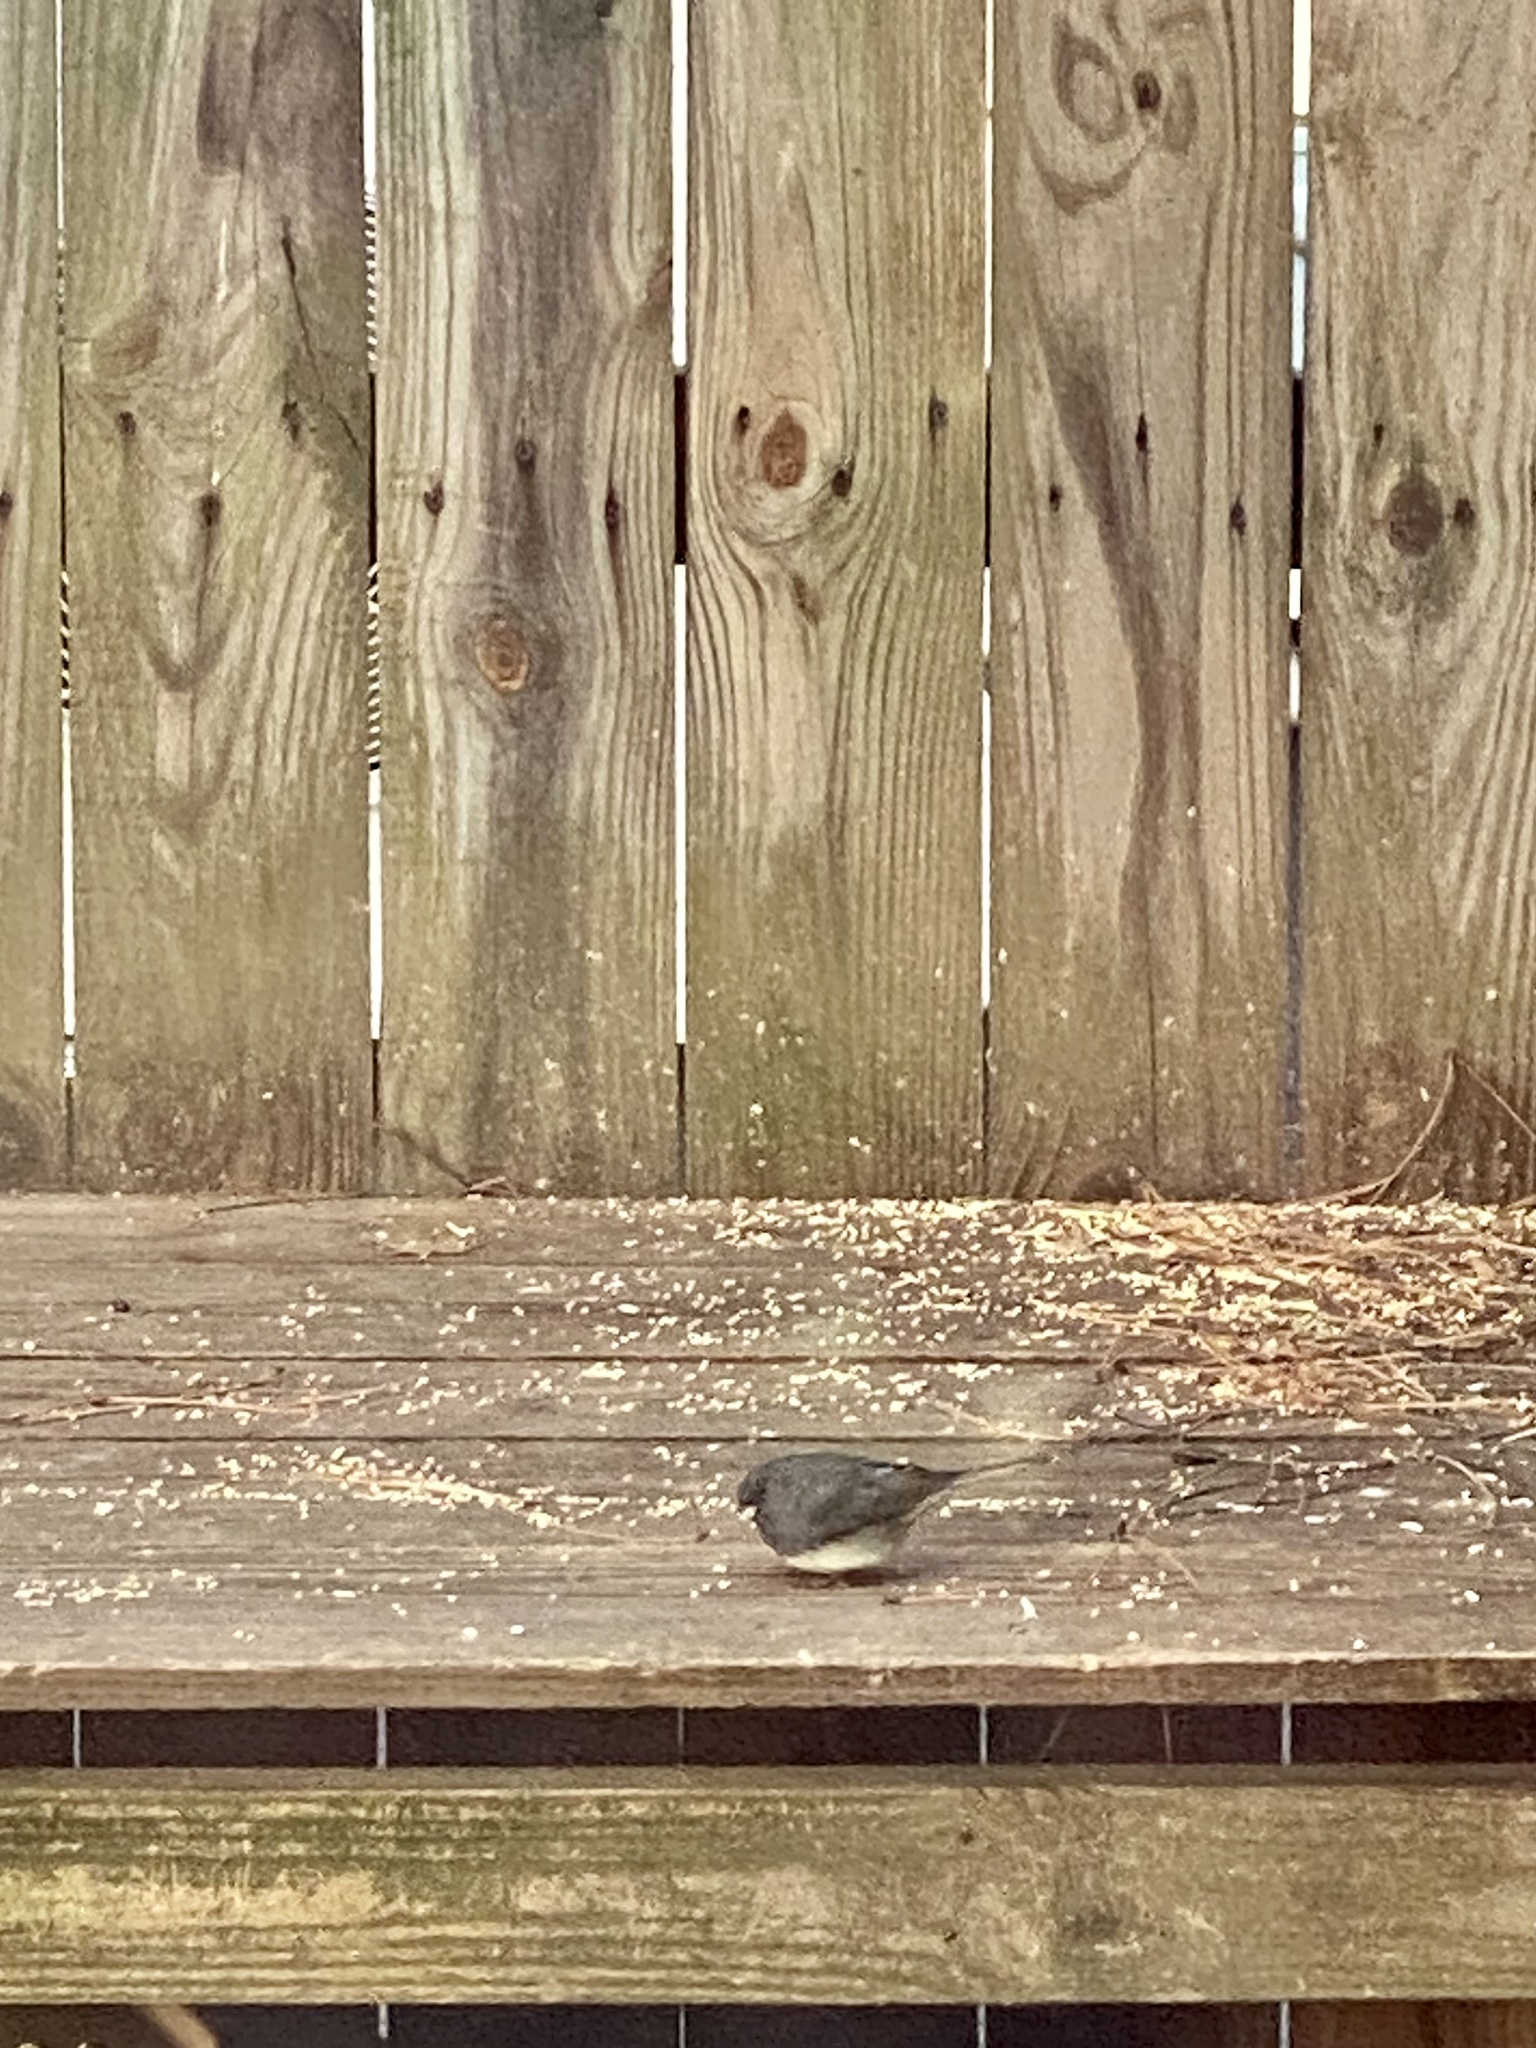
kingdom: Animalia
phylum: Chordata
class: Aves
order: Passeriformes
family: Passerellidae
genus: Junco
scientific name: Junco hyemalis
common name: Dark-eyed junco
